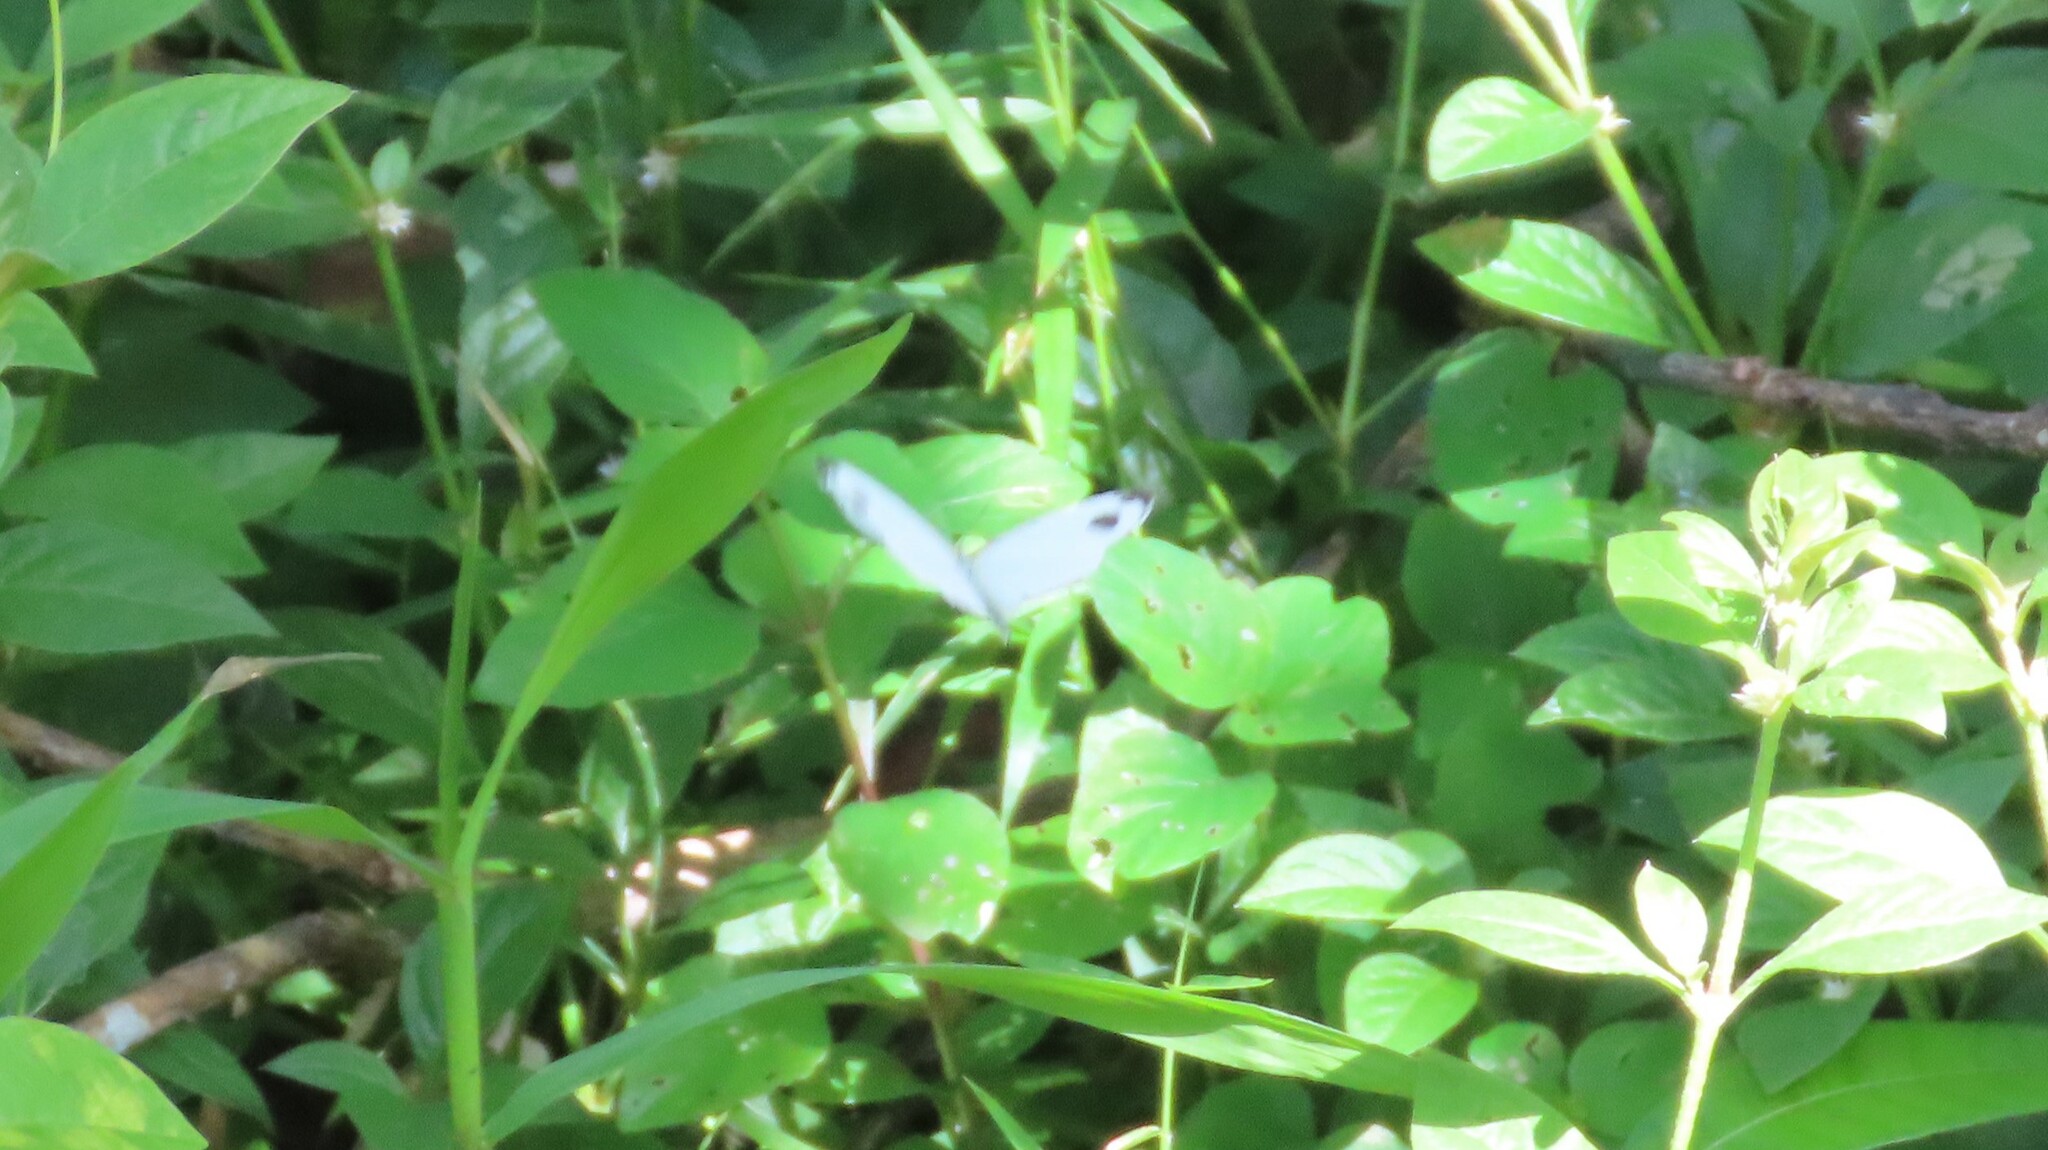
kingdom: Animalia
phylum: Arthropoda
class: Insecta
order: Lepidoptera
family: Pieridae
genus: Leptosia
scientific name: Leptosia nina
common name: Psyche
